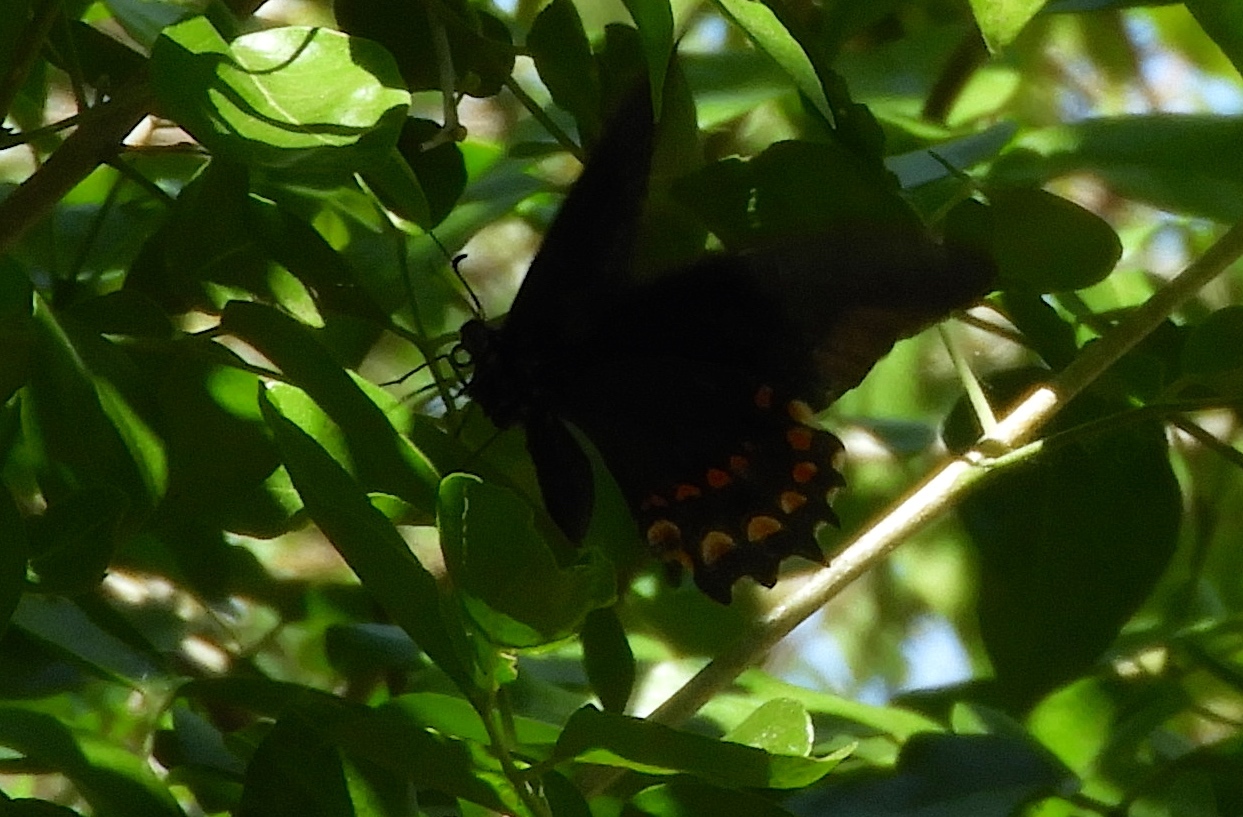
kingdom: Animalia
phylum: Arthropoda
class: Insecta
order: Lepidoptera
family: Papilionidae
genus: Heraclides
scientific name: Heraclides rogeri
